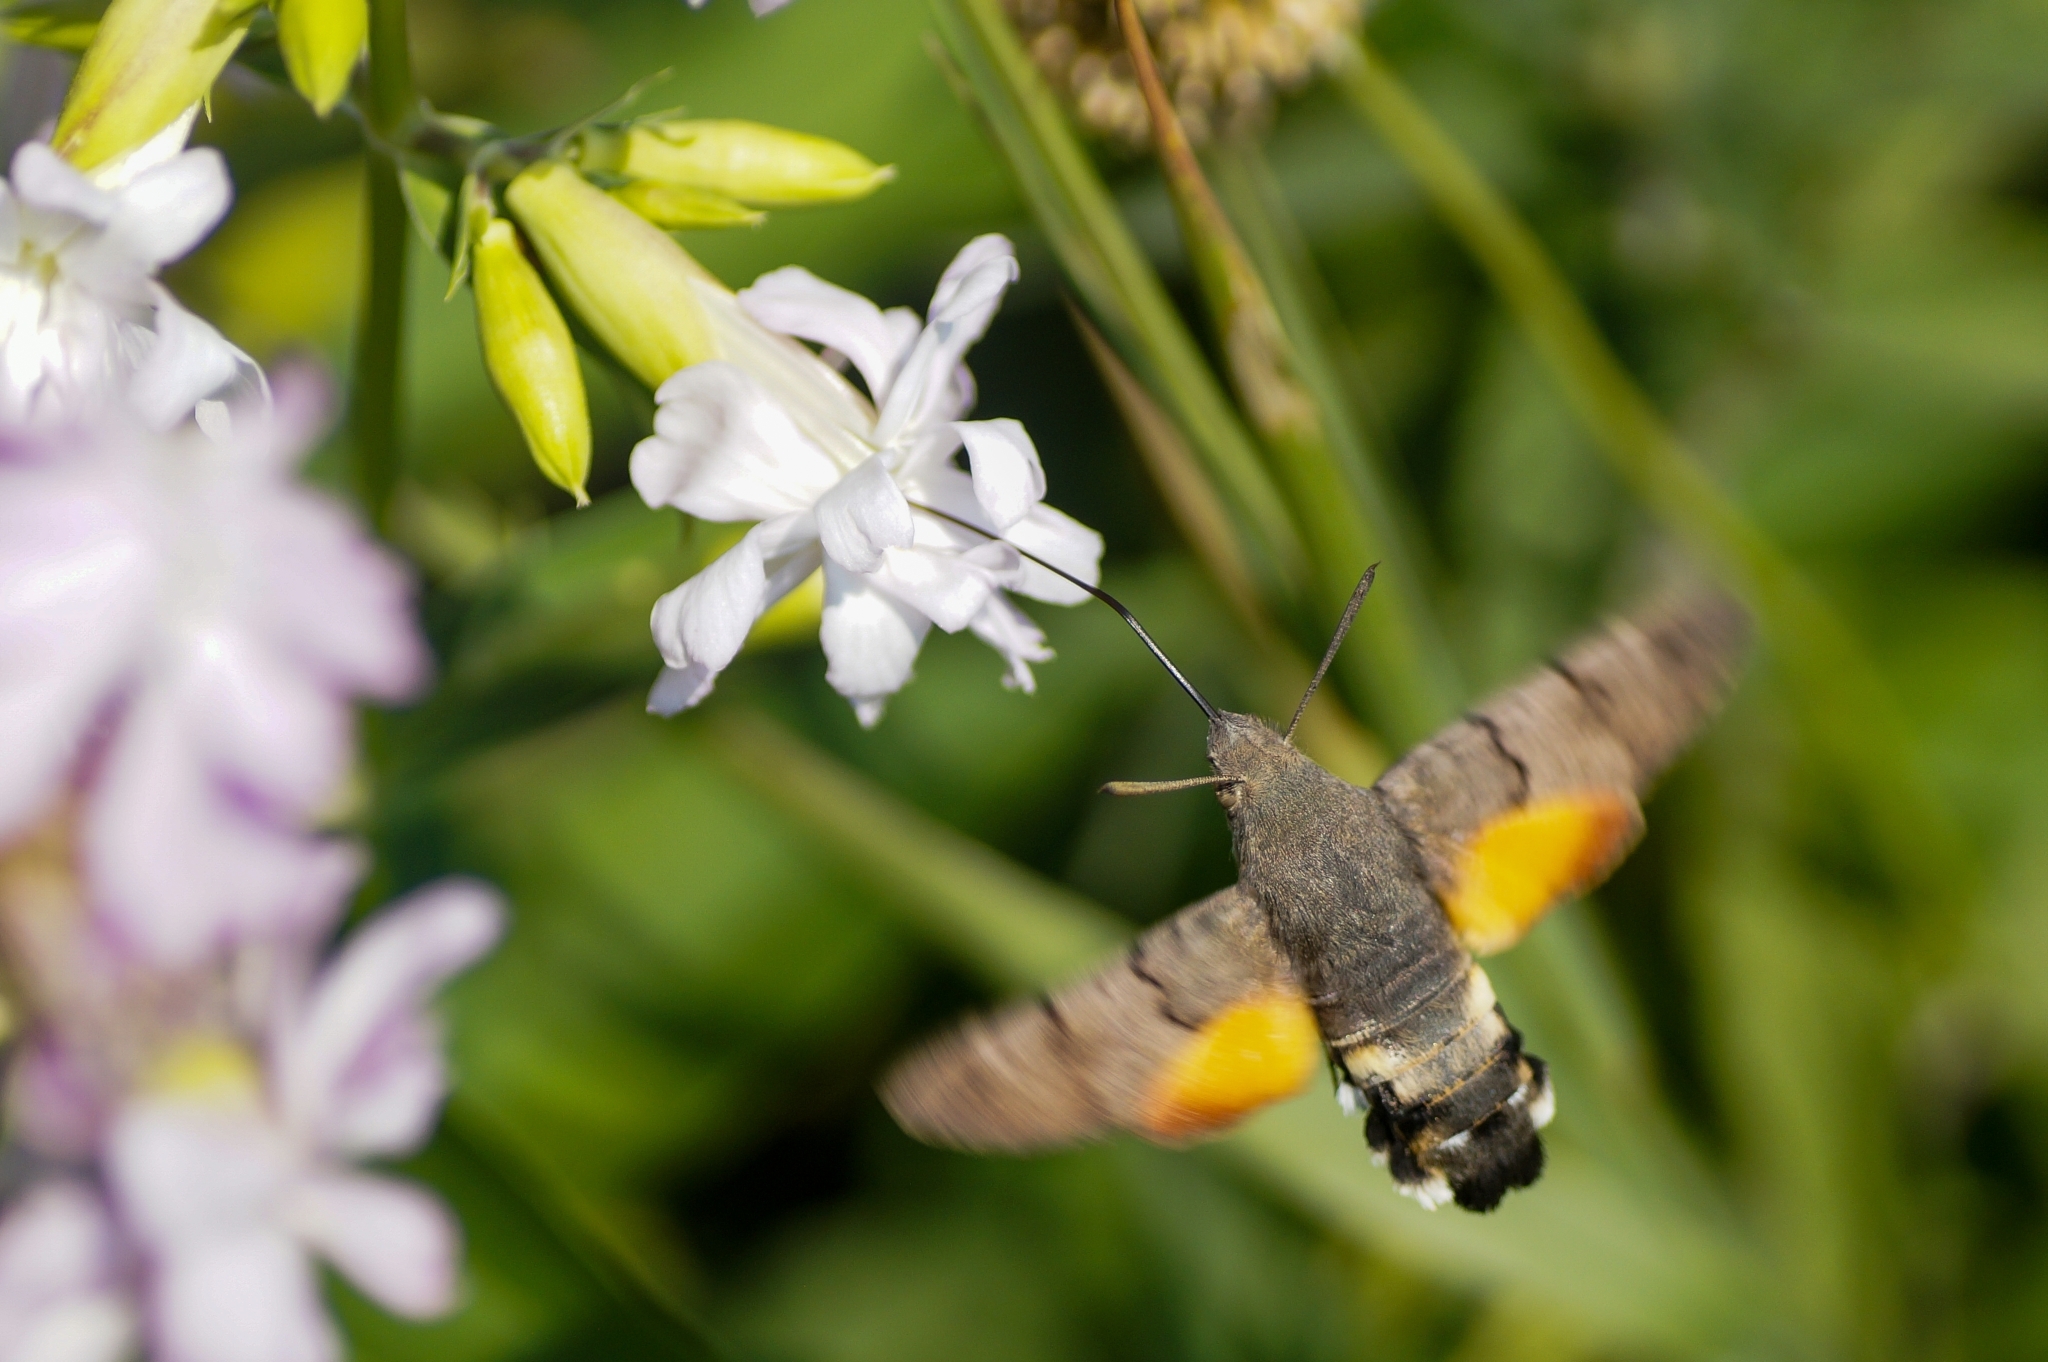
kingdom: Animalia
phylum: Arthropoda
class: Insecta
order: Lepidoptera
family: Sphingidae
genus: Macroglossum
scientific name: Macroglossum stellatarum
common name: Humming-bird hawk-moth
